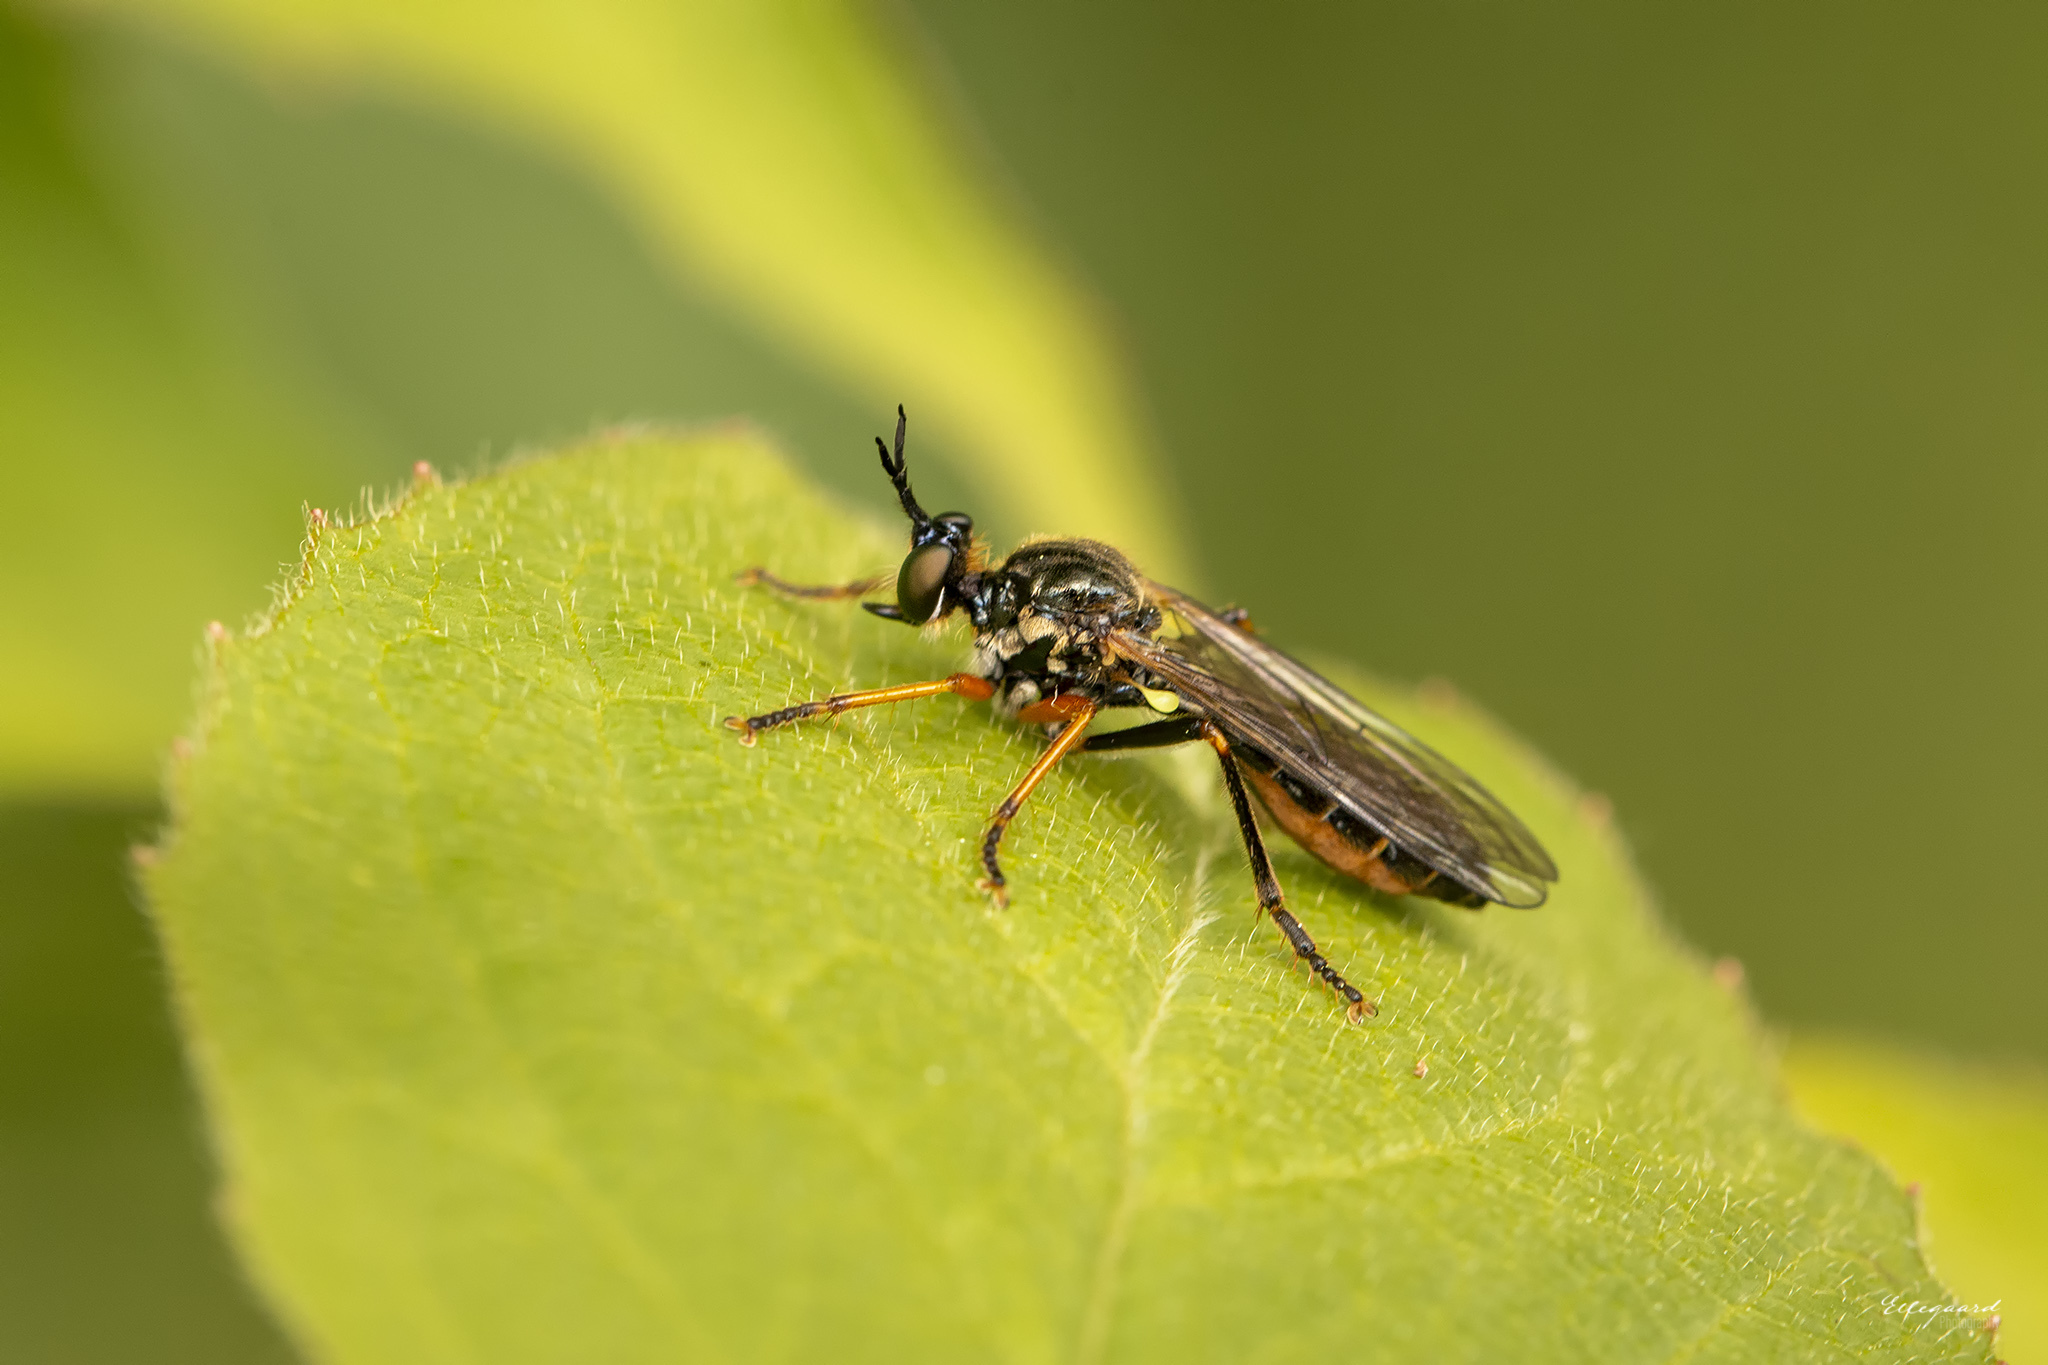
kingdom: Animalia
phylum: Arthropoda
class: Insecta
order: Diptera
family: Asilidae
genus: Dioctria
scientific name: Dioctria rufipes
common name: Common red-legged robberfly
